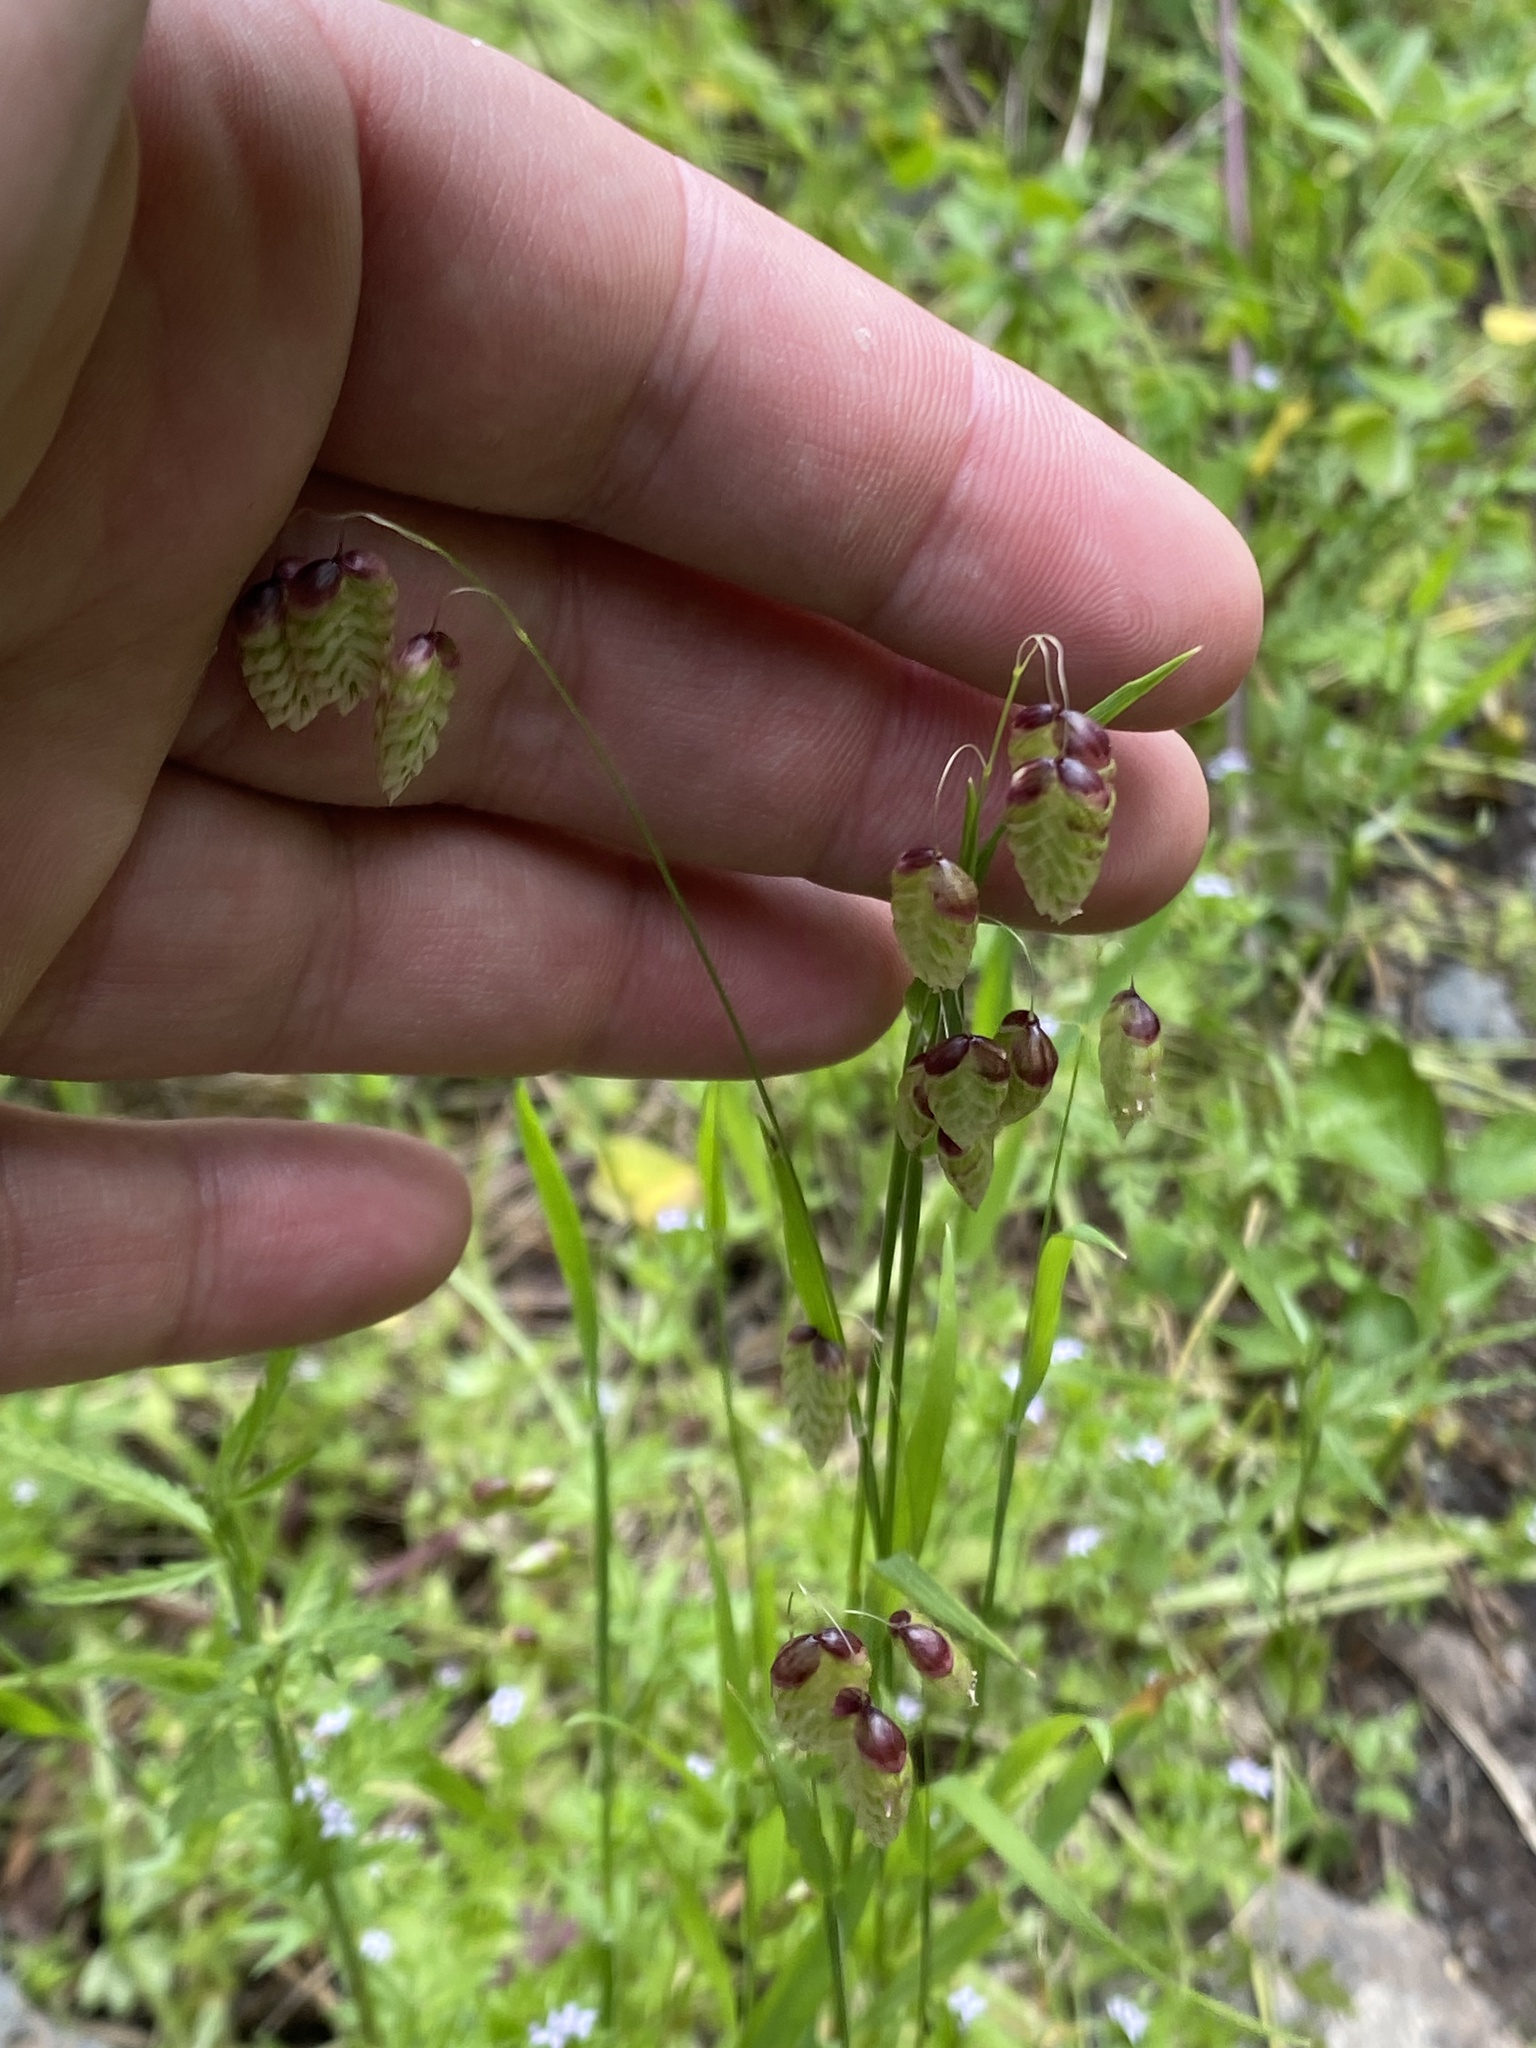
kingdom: Plantae
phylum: Tracheophyta
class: Liliopsida
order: Poales
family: Poaceae
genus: Briza
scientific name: Briza maxima
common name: Big quakinggrass
